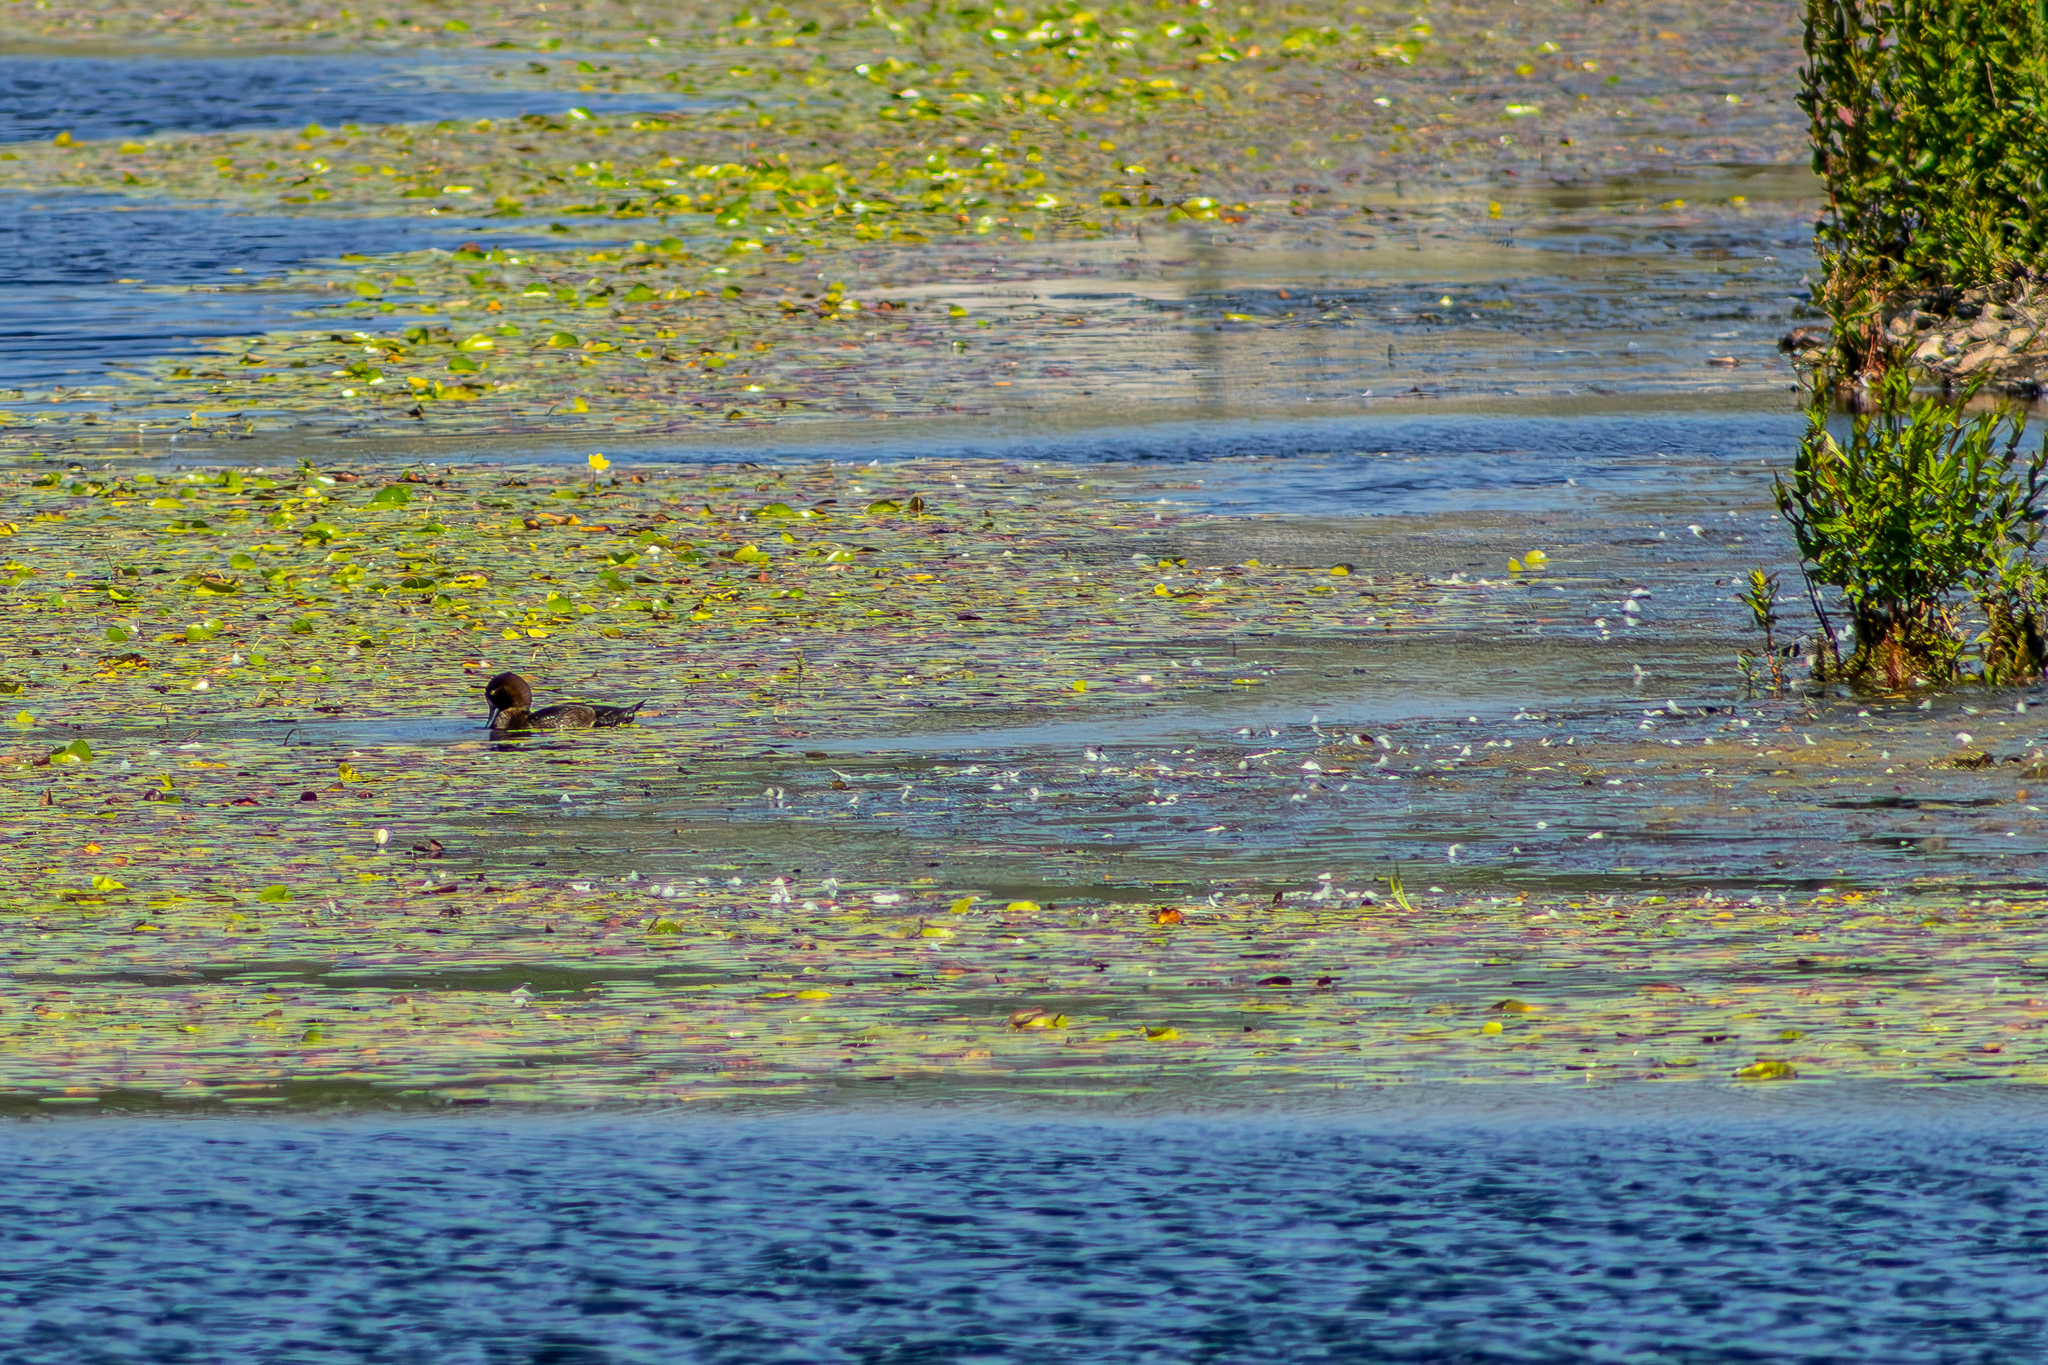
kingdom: Animalia
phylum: Chordata
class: Aves
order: Anseriformes
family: Anatidae
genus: Aythya
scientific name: Aythya fuligula
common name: Tufted duck
